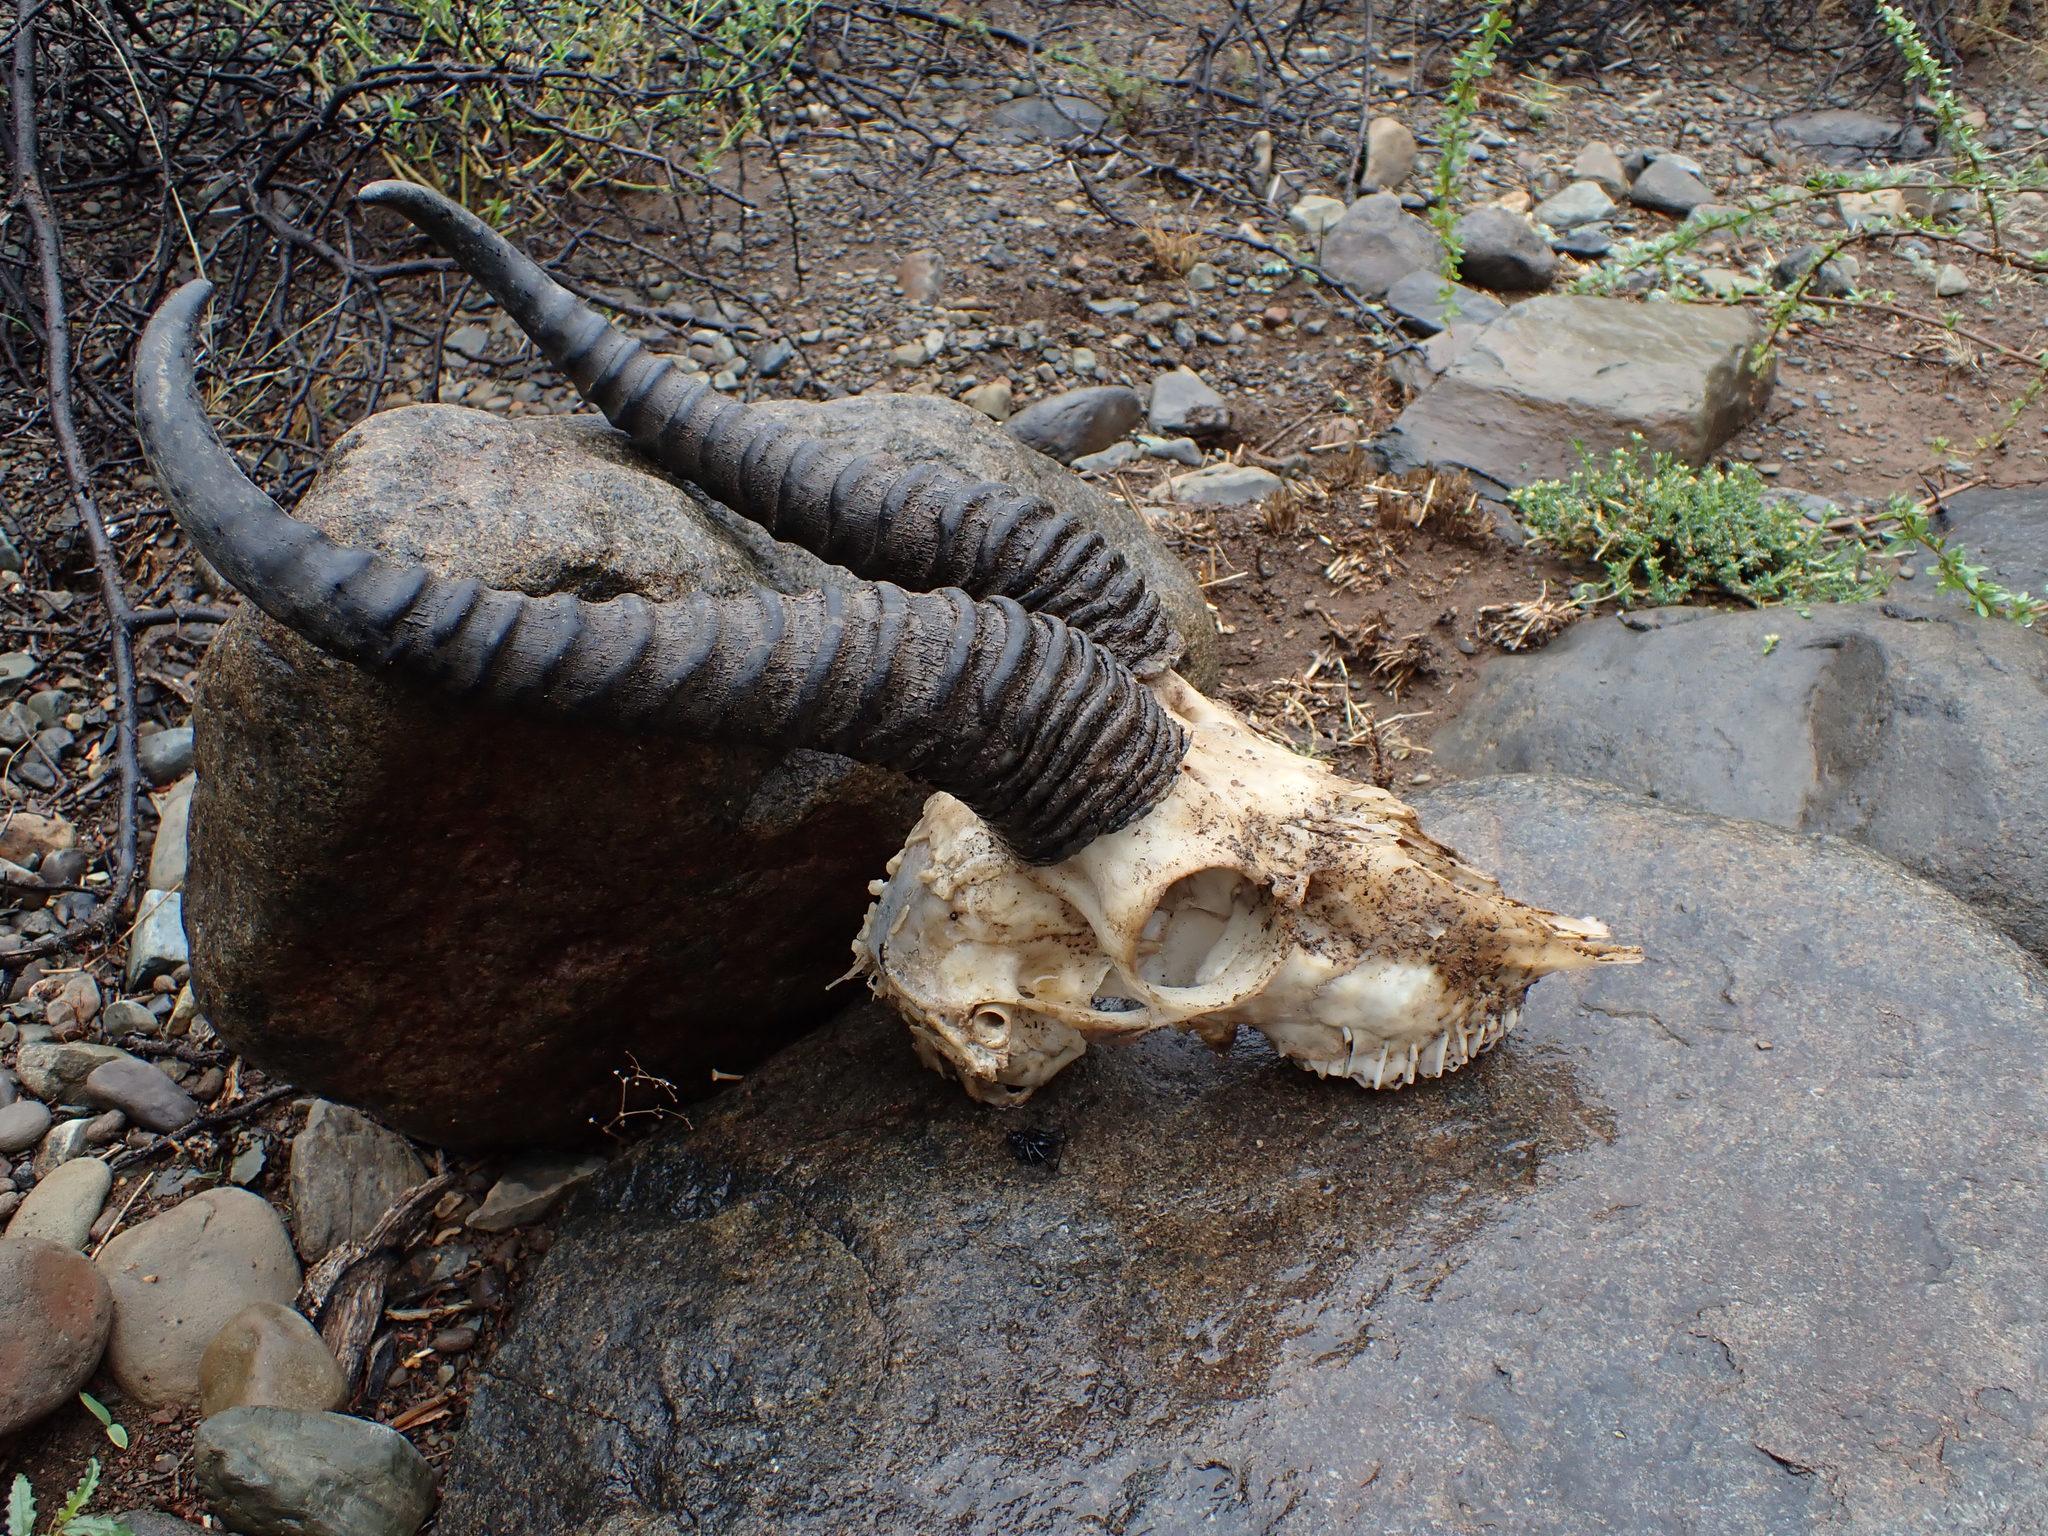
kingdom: Animalia
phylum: Chordata
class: Mammalia
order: Artiodactyla
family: Bovidae
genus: Antidorcas
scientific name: Antidorcas marsupialis
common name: Springbok
